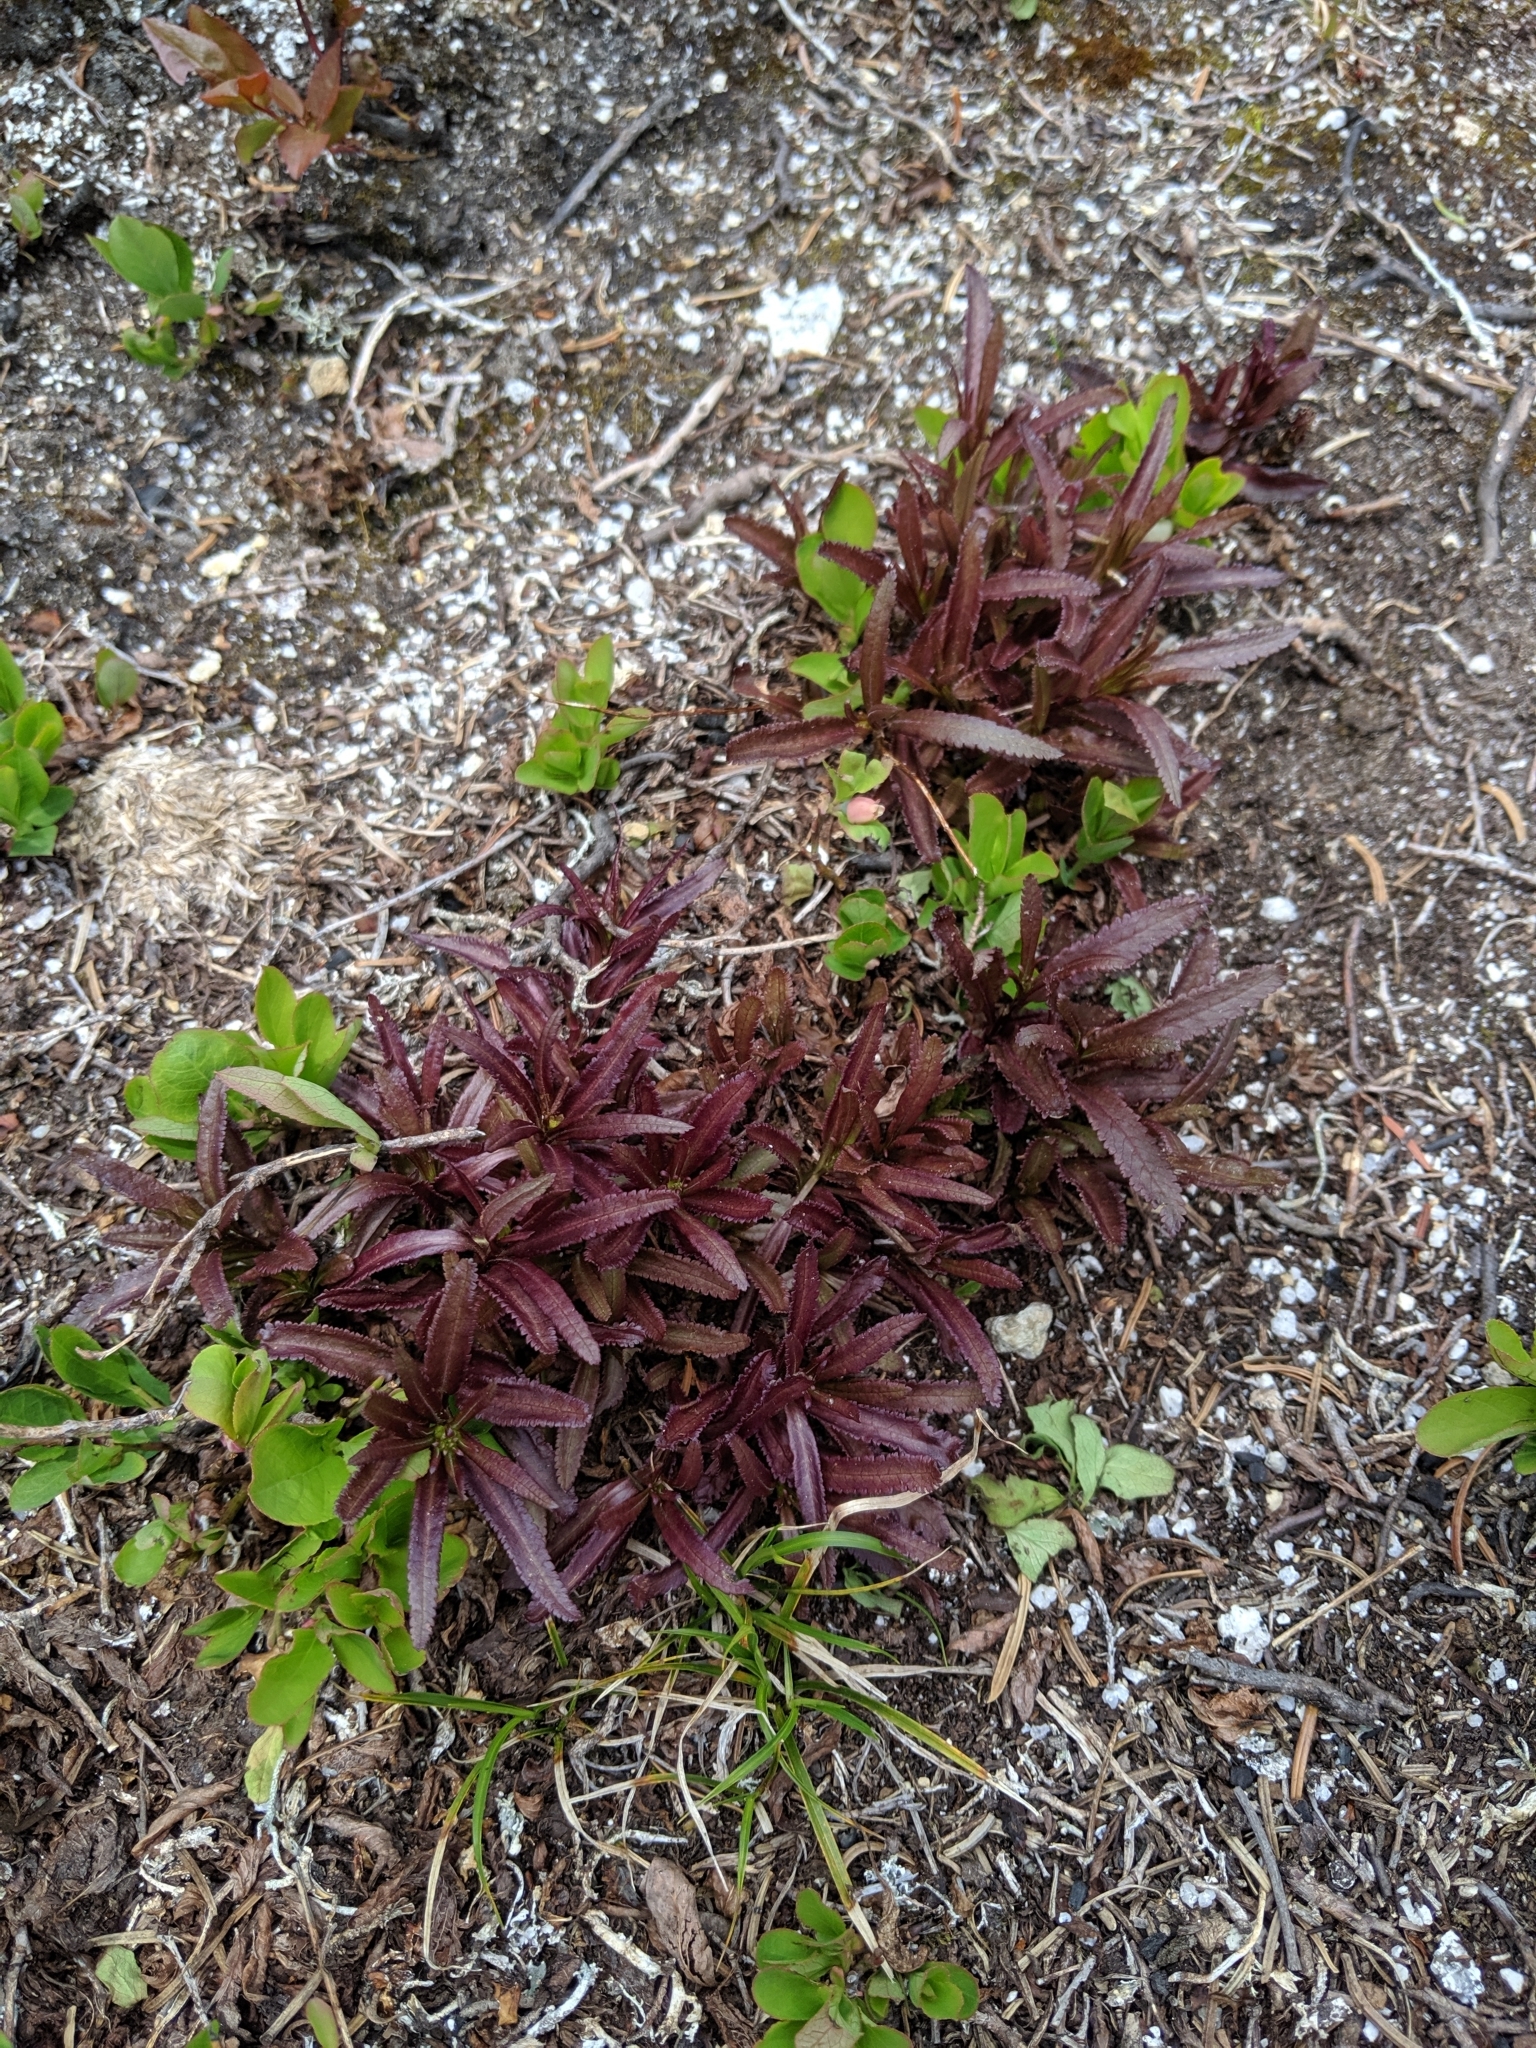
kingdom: Plantae
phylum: Tracheophyta
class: Magnoliopsida
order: Lamiales
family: Orobanchaceae
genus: Pedicularis
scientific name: Pedicularis racemosa
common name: Leafy lousewort
